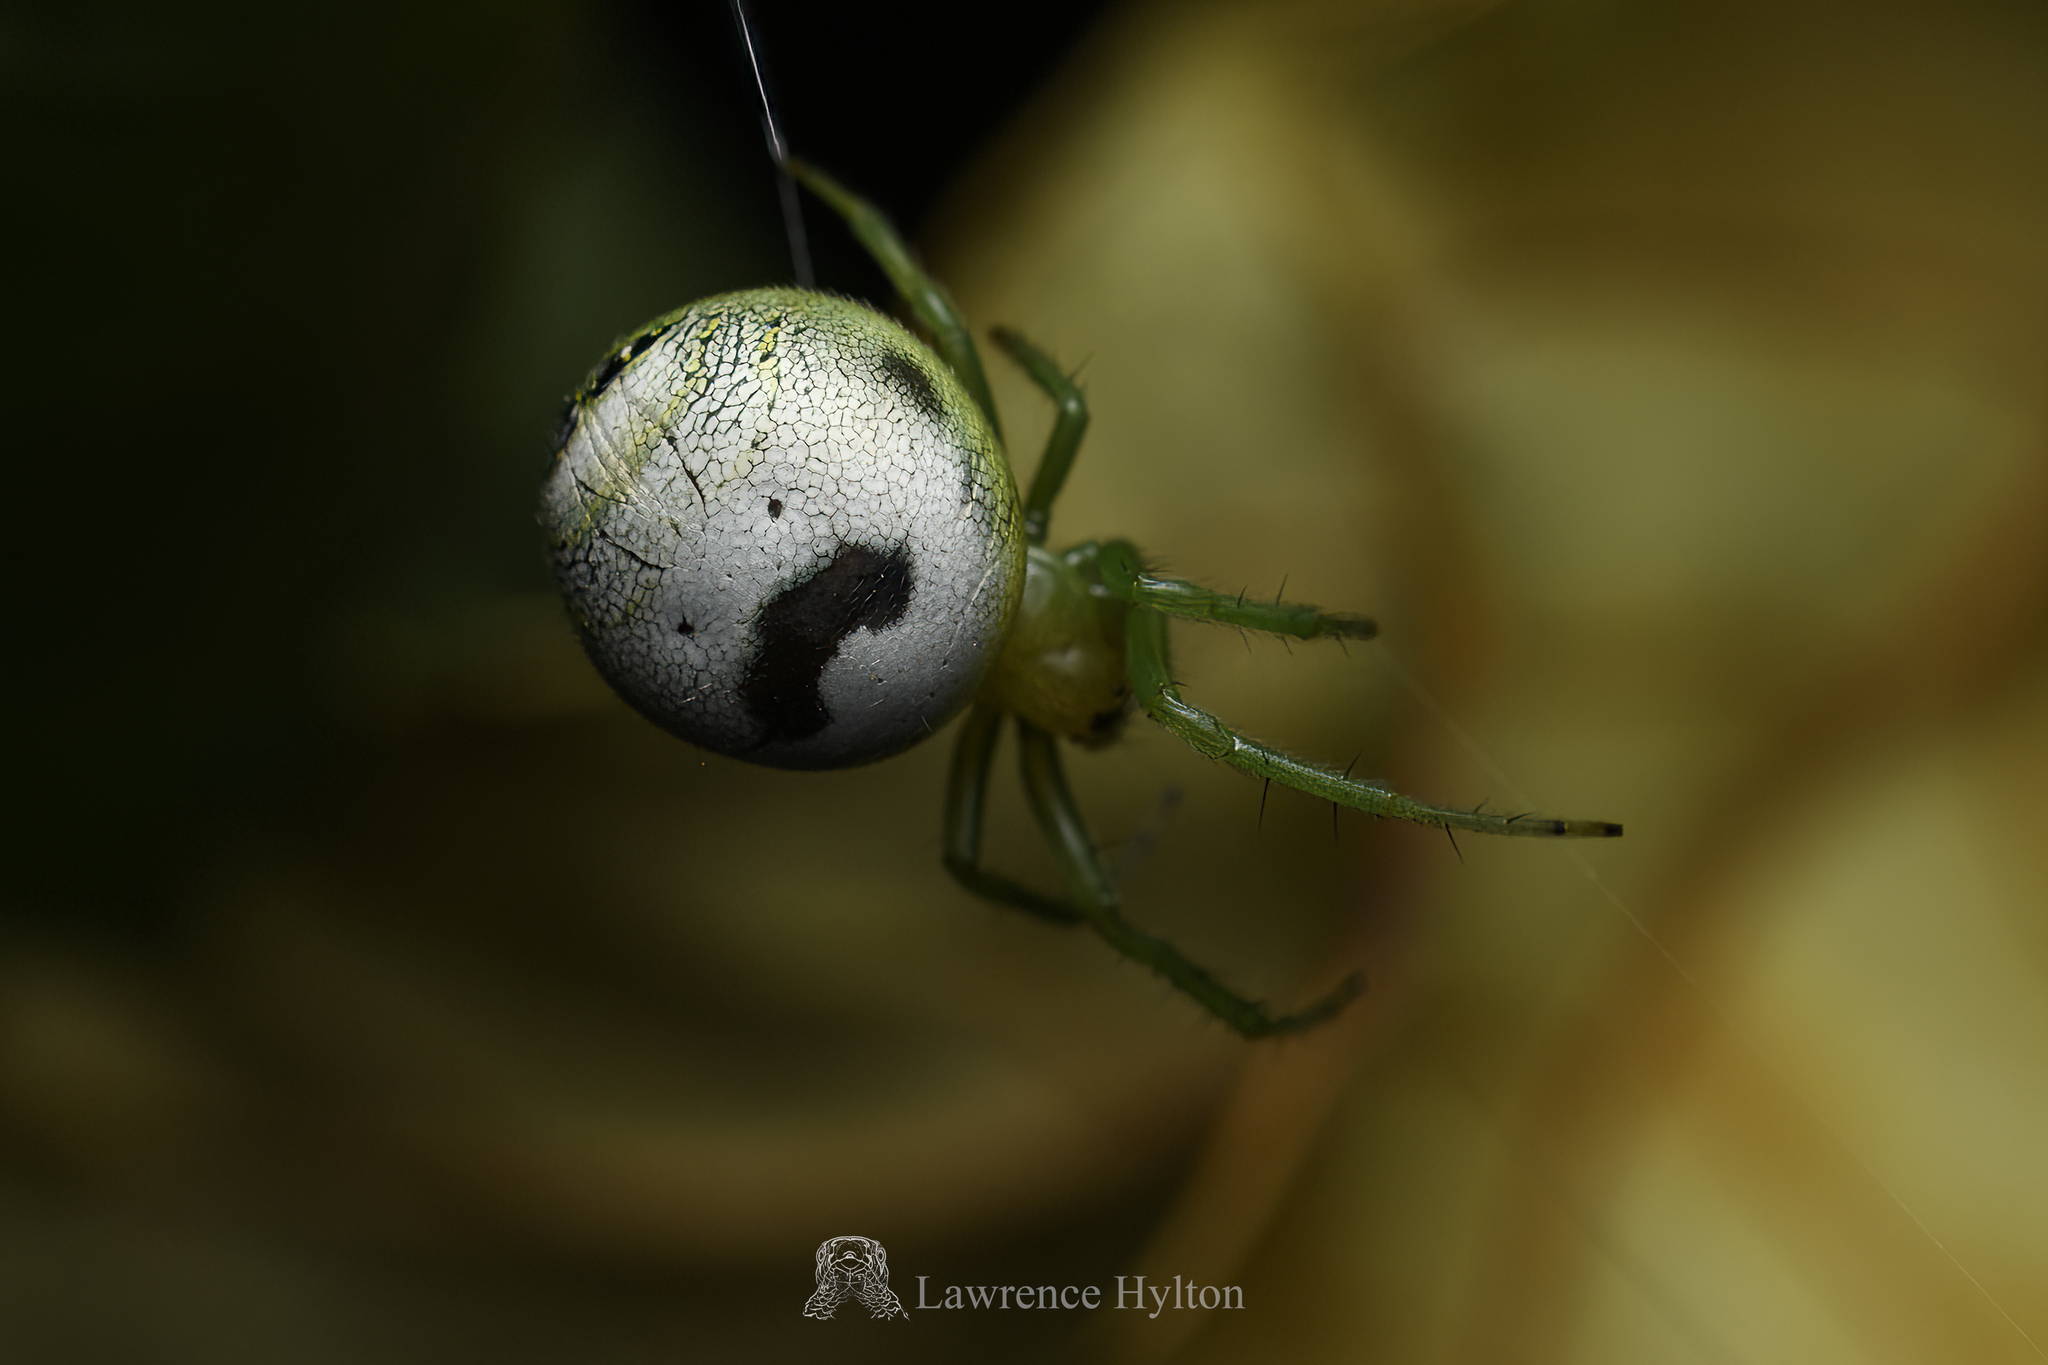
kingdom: Animalia
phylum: Arthropoda
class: Arachnida
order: Araneae
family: Araneidae
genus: Bijoaraneus
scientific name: Bijoaraneus mitificus
